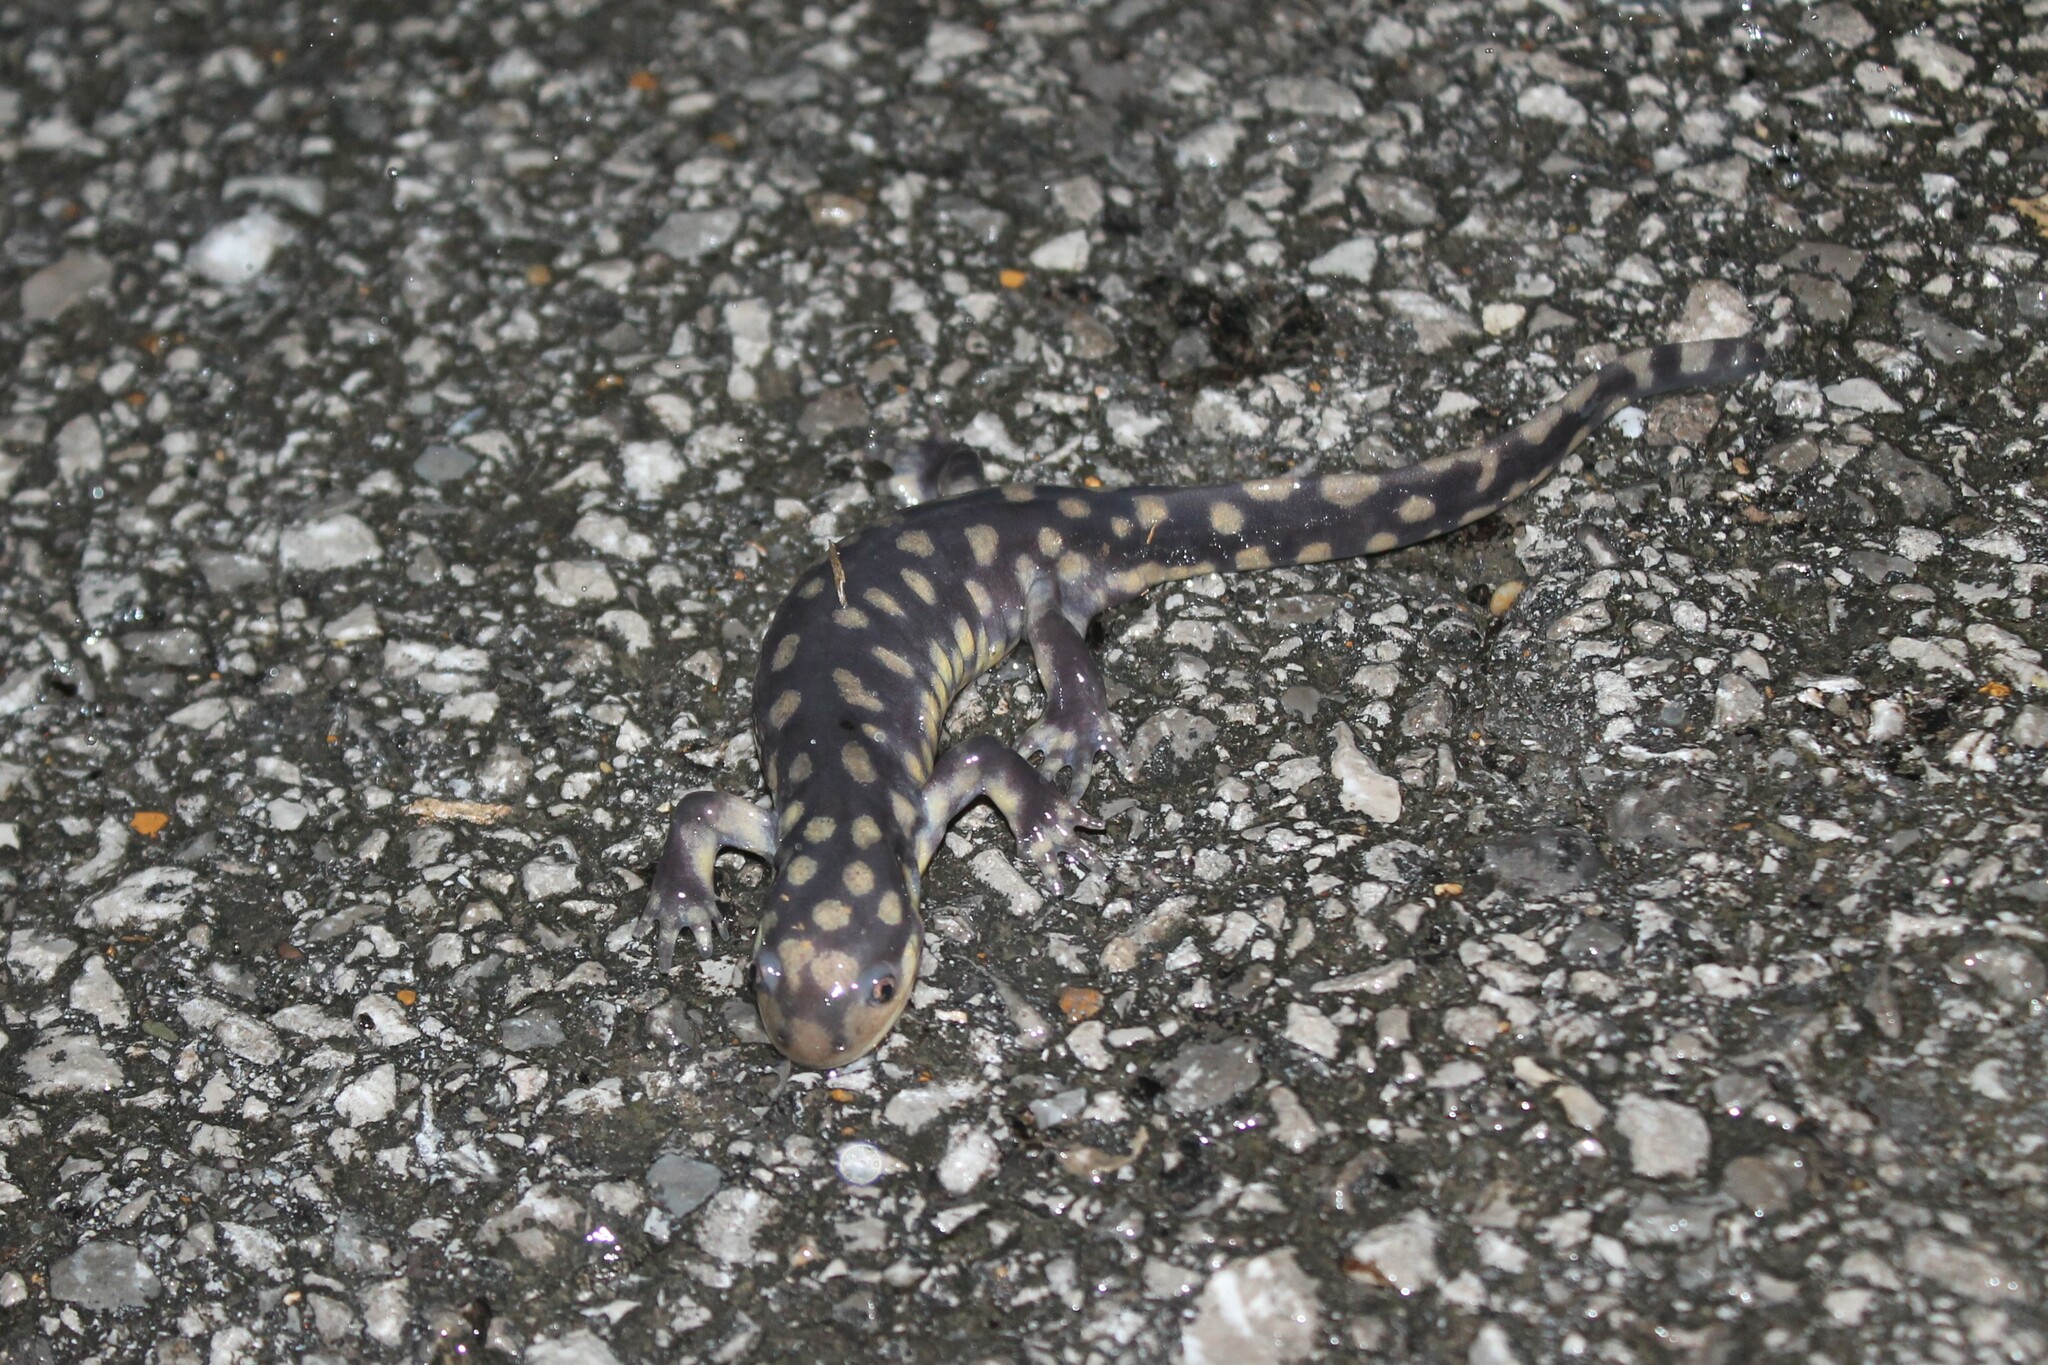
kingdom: Animalia
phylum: Chordata
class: Amphibia
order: Caudata
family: Ambystomatidae
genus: Ambystoma
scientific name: Ambystoma tigrinum
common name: Tiger salamander
